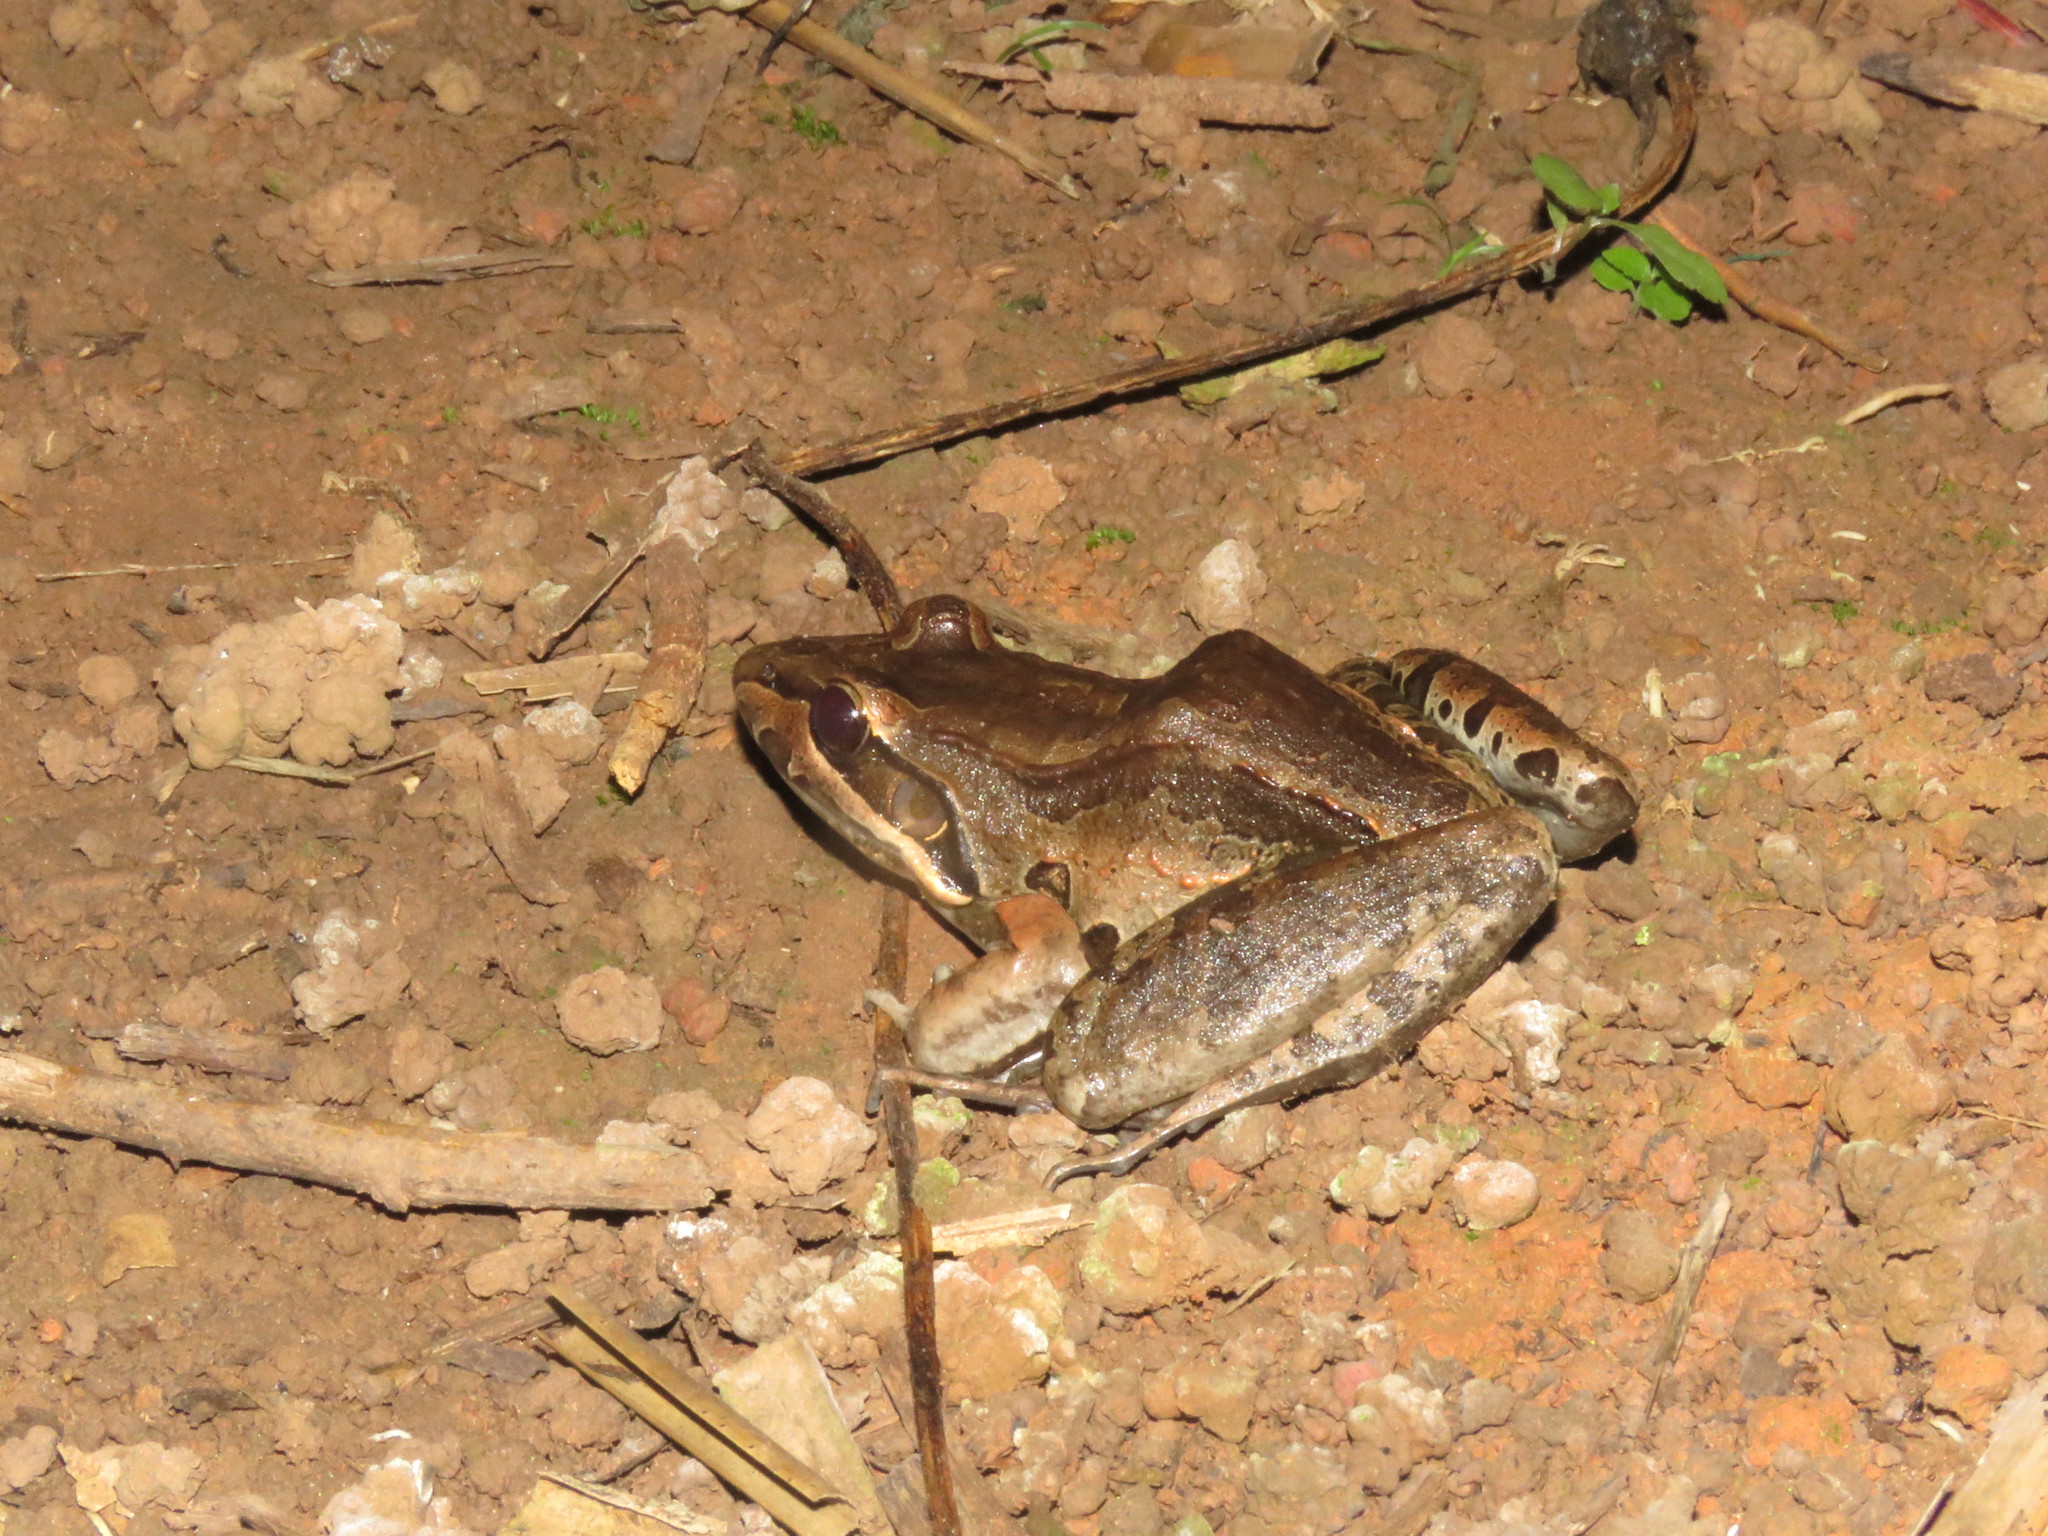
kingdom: Animalia
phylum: Chordata
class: Amphibia
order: Anura
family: Leptodactylidae
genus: Leptodactylus
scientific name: Leptodactylus bolivianus
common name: Bolivian white-lipped frog
